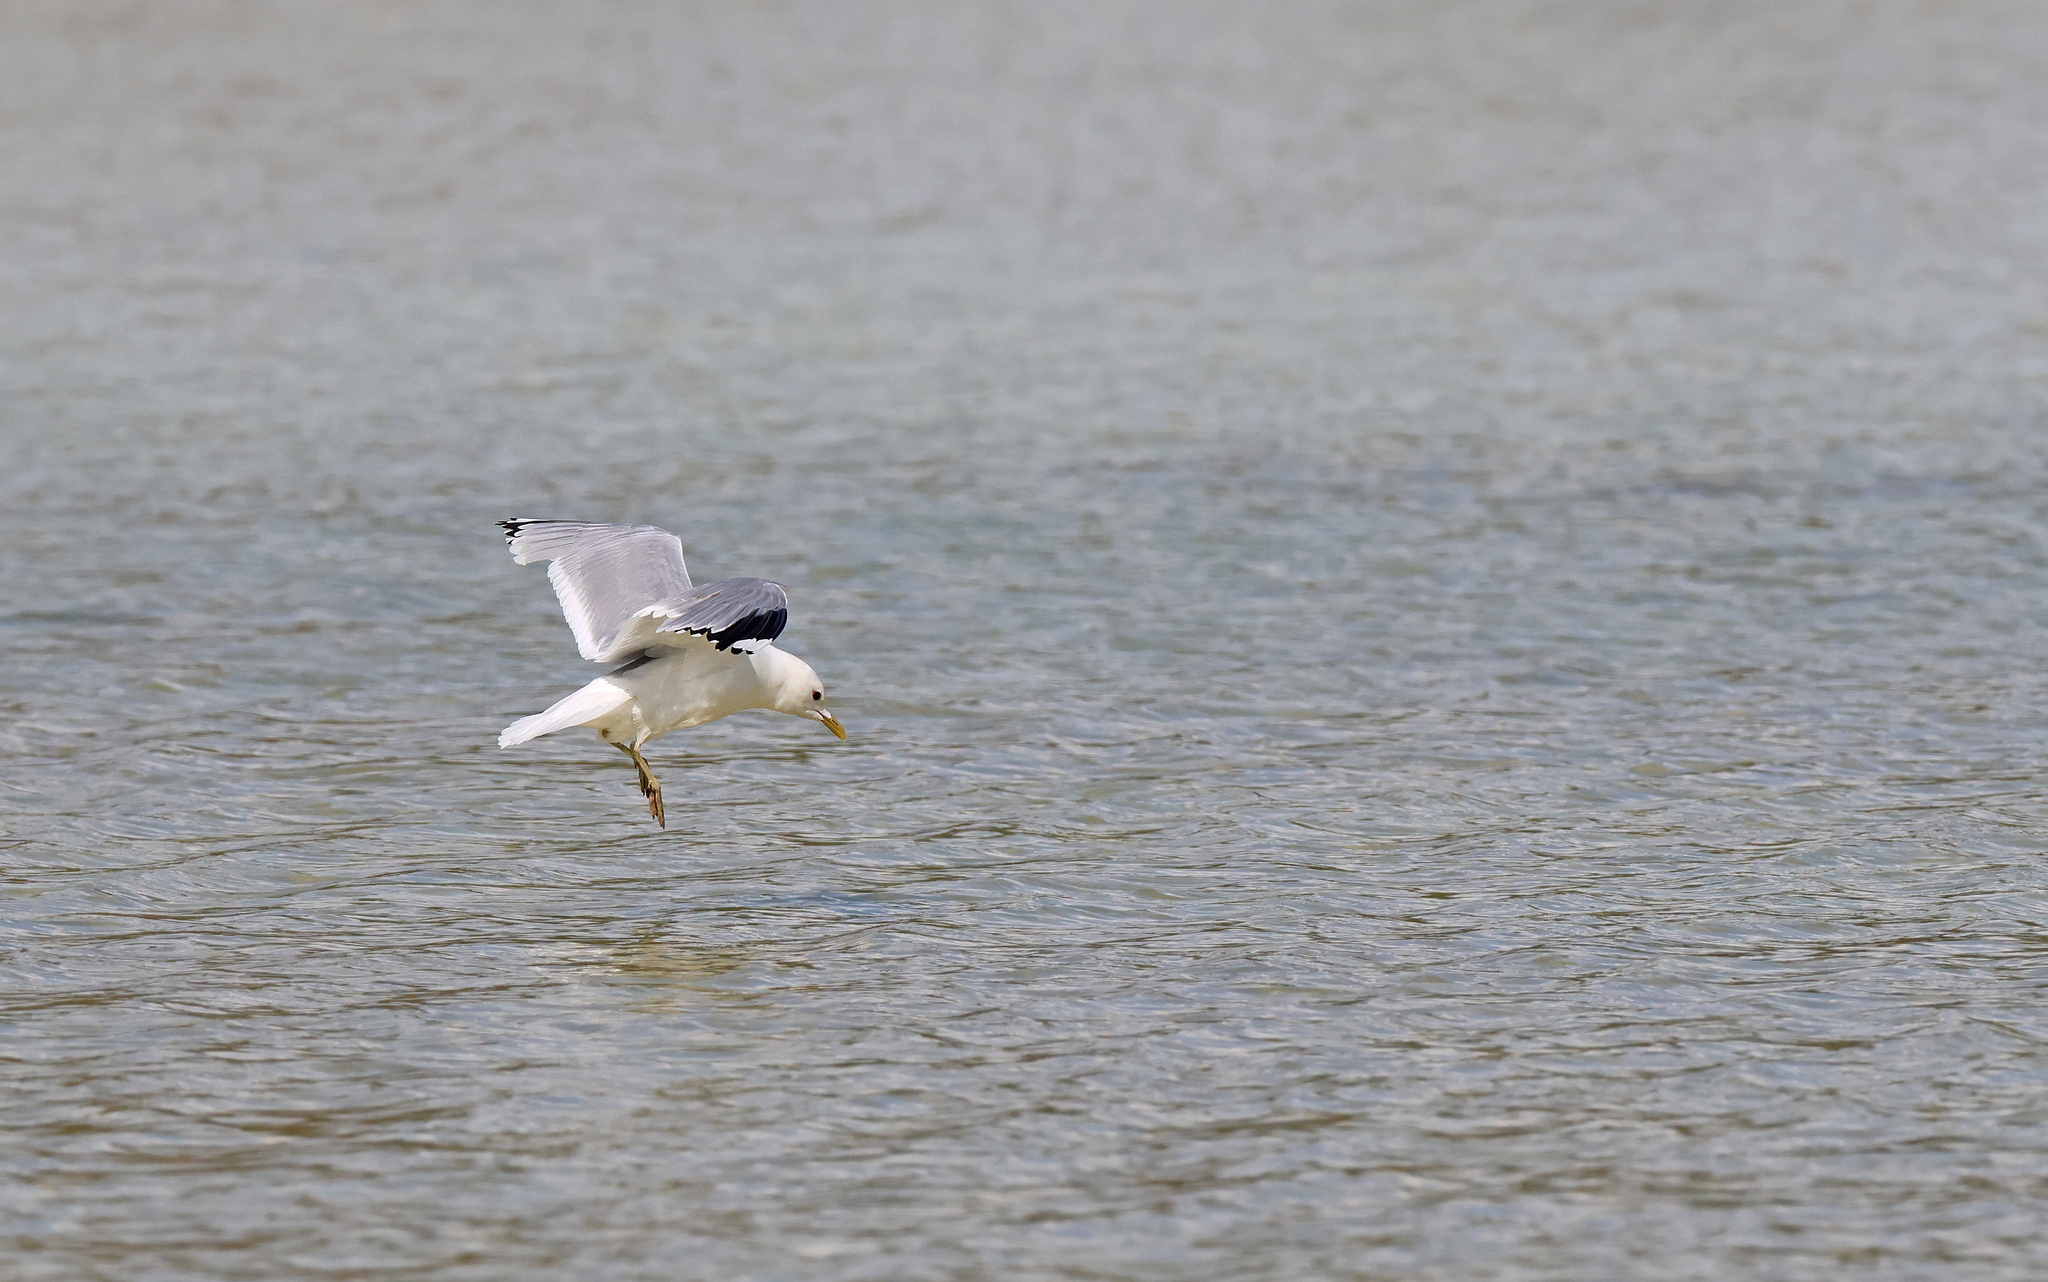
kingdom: Animalia
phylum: Chordata
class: Aves
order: Charadriiformes
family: Laridae
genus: Larus
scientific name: Larus canus
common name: Mew gull
